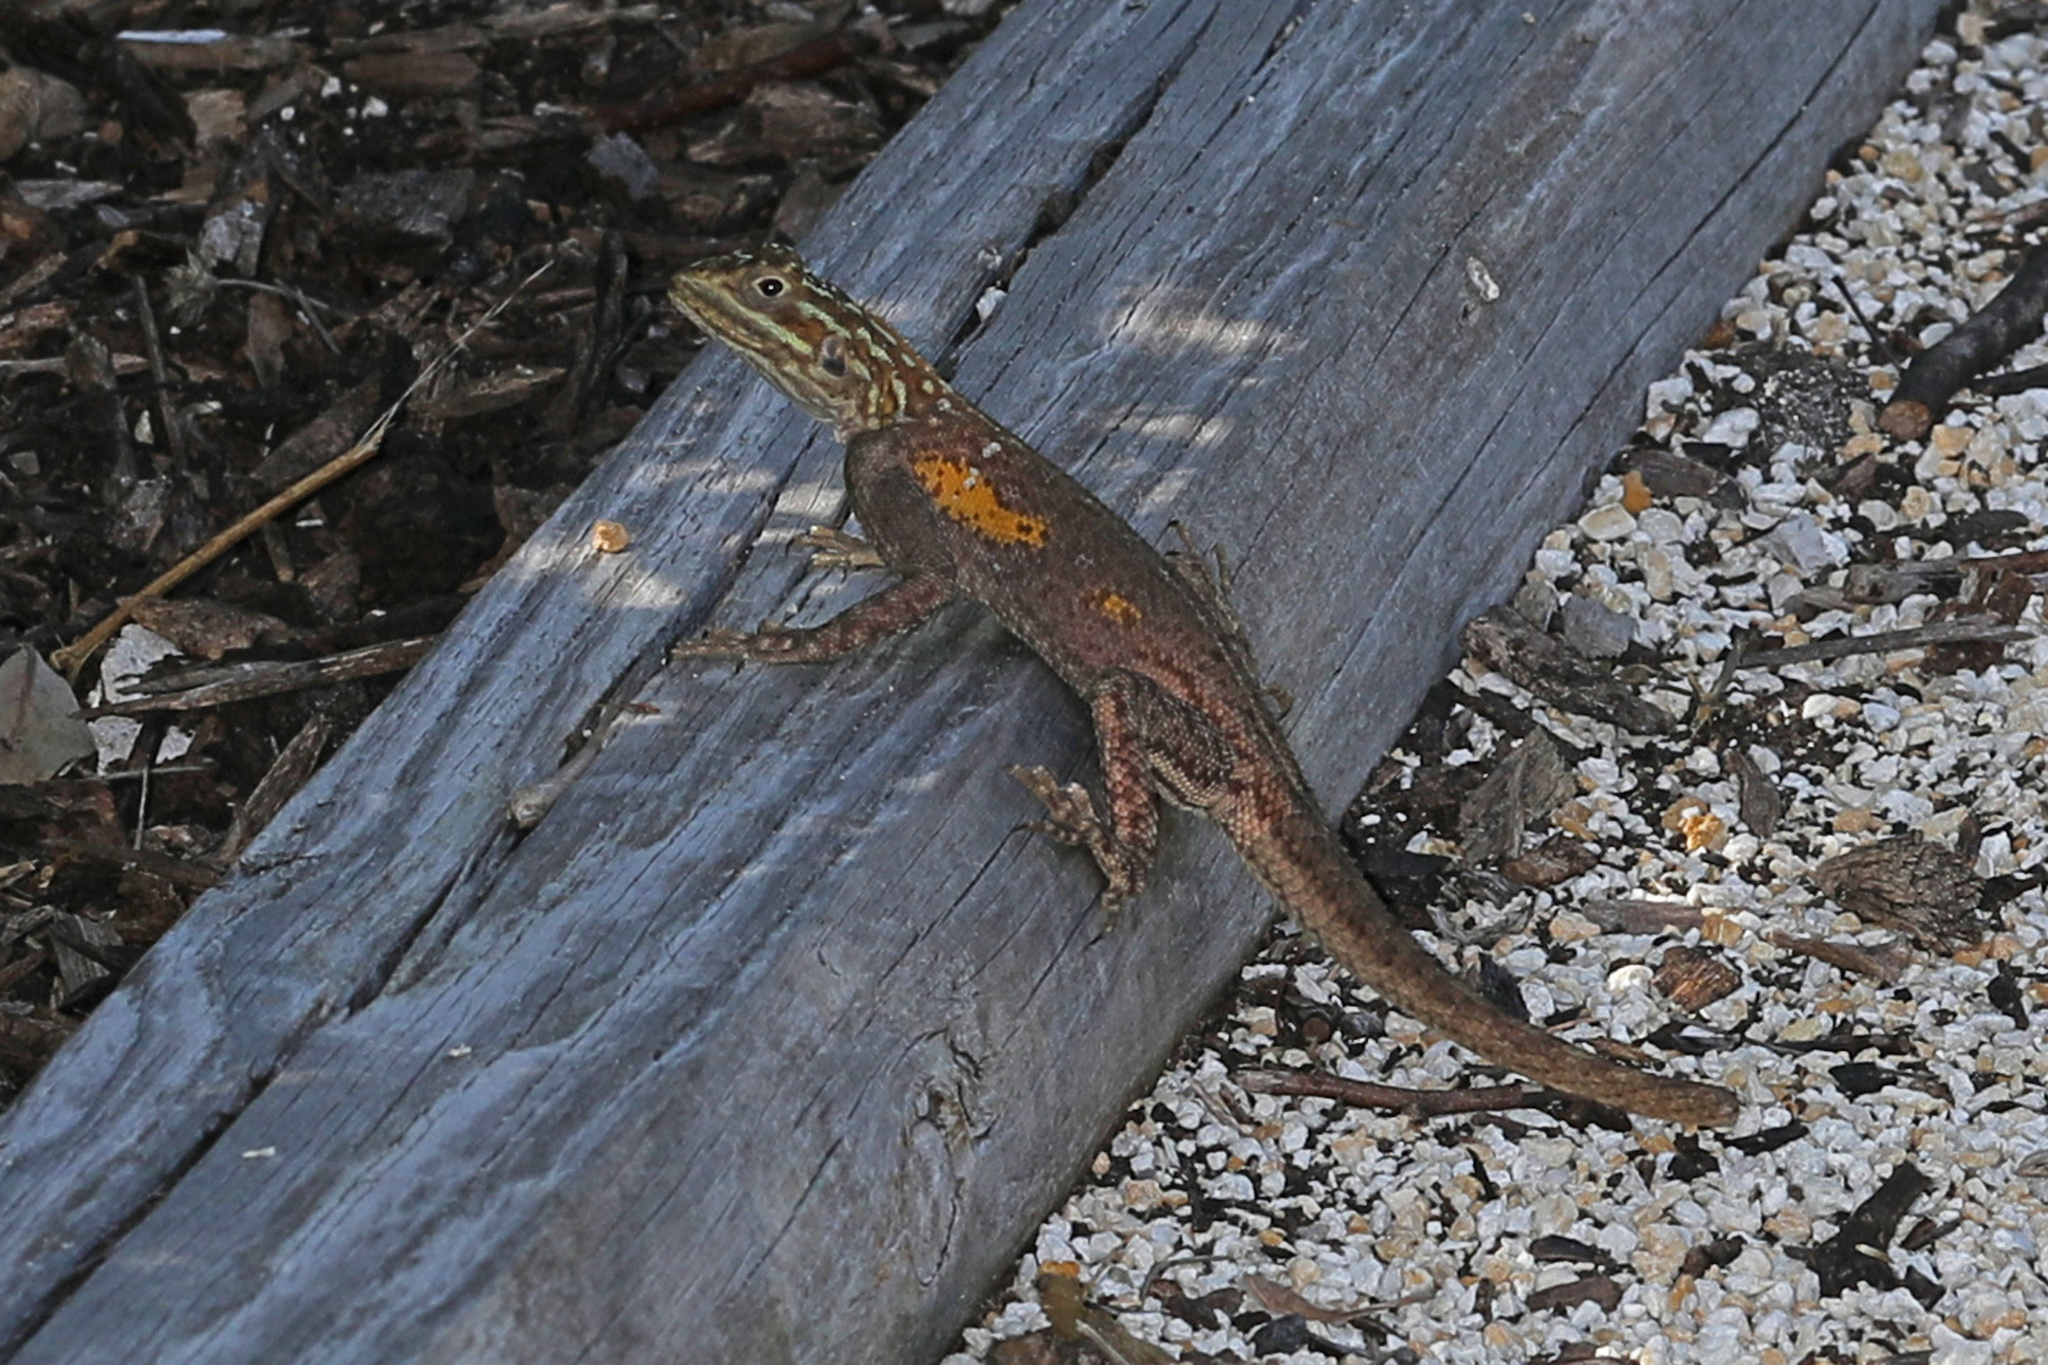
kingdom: Animalia
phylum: Chordata
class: Squamata
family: Agamidae
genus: Agama
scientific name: Agama picticauda
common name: Red-headed agama
